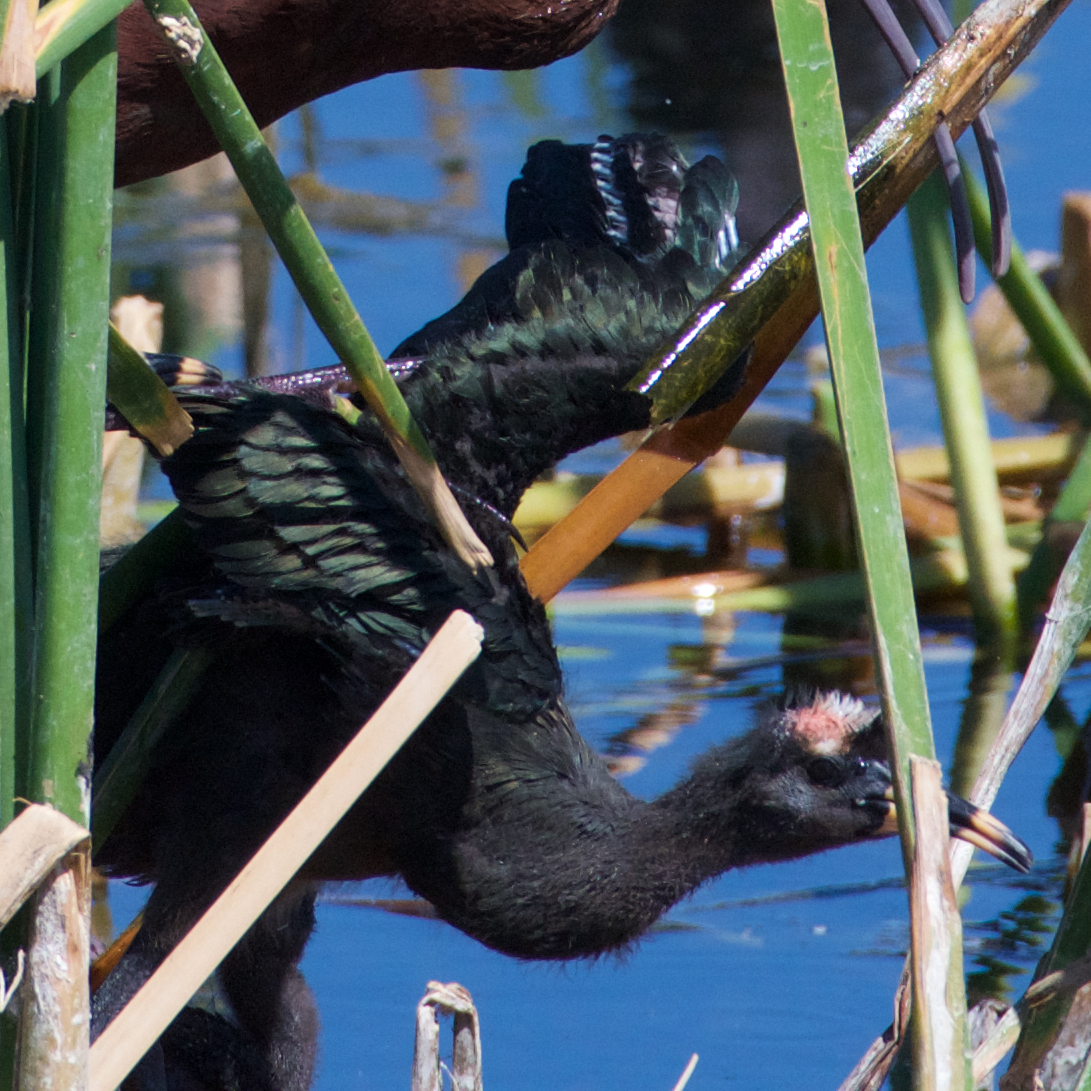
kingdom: Animalia
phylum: Chordata
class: Aves
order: Pelecaniformes
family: Threskiornithidae
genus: Plegadis
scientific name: Plegadis chihi
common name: White-faced ibis
